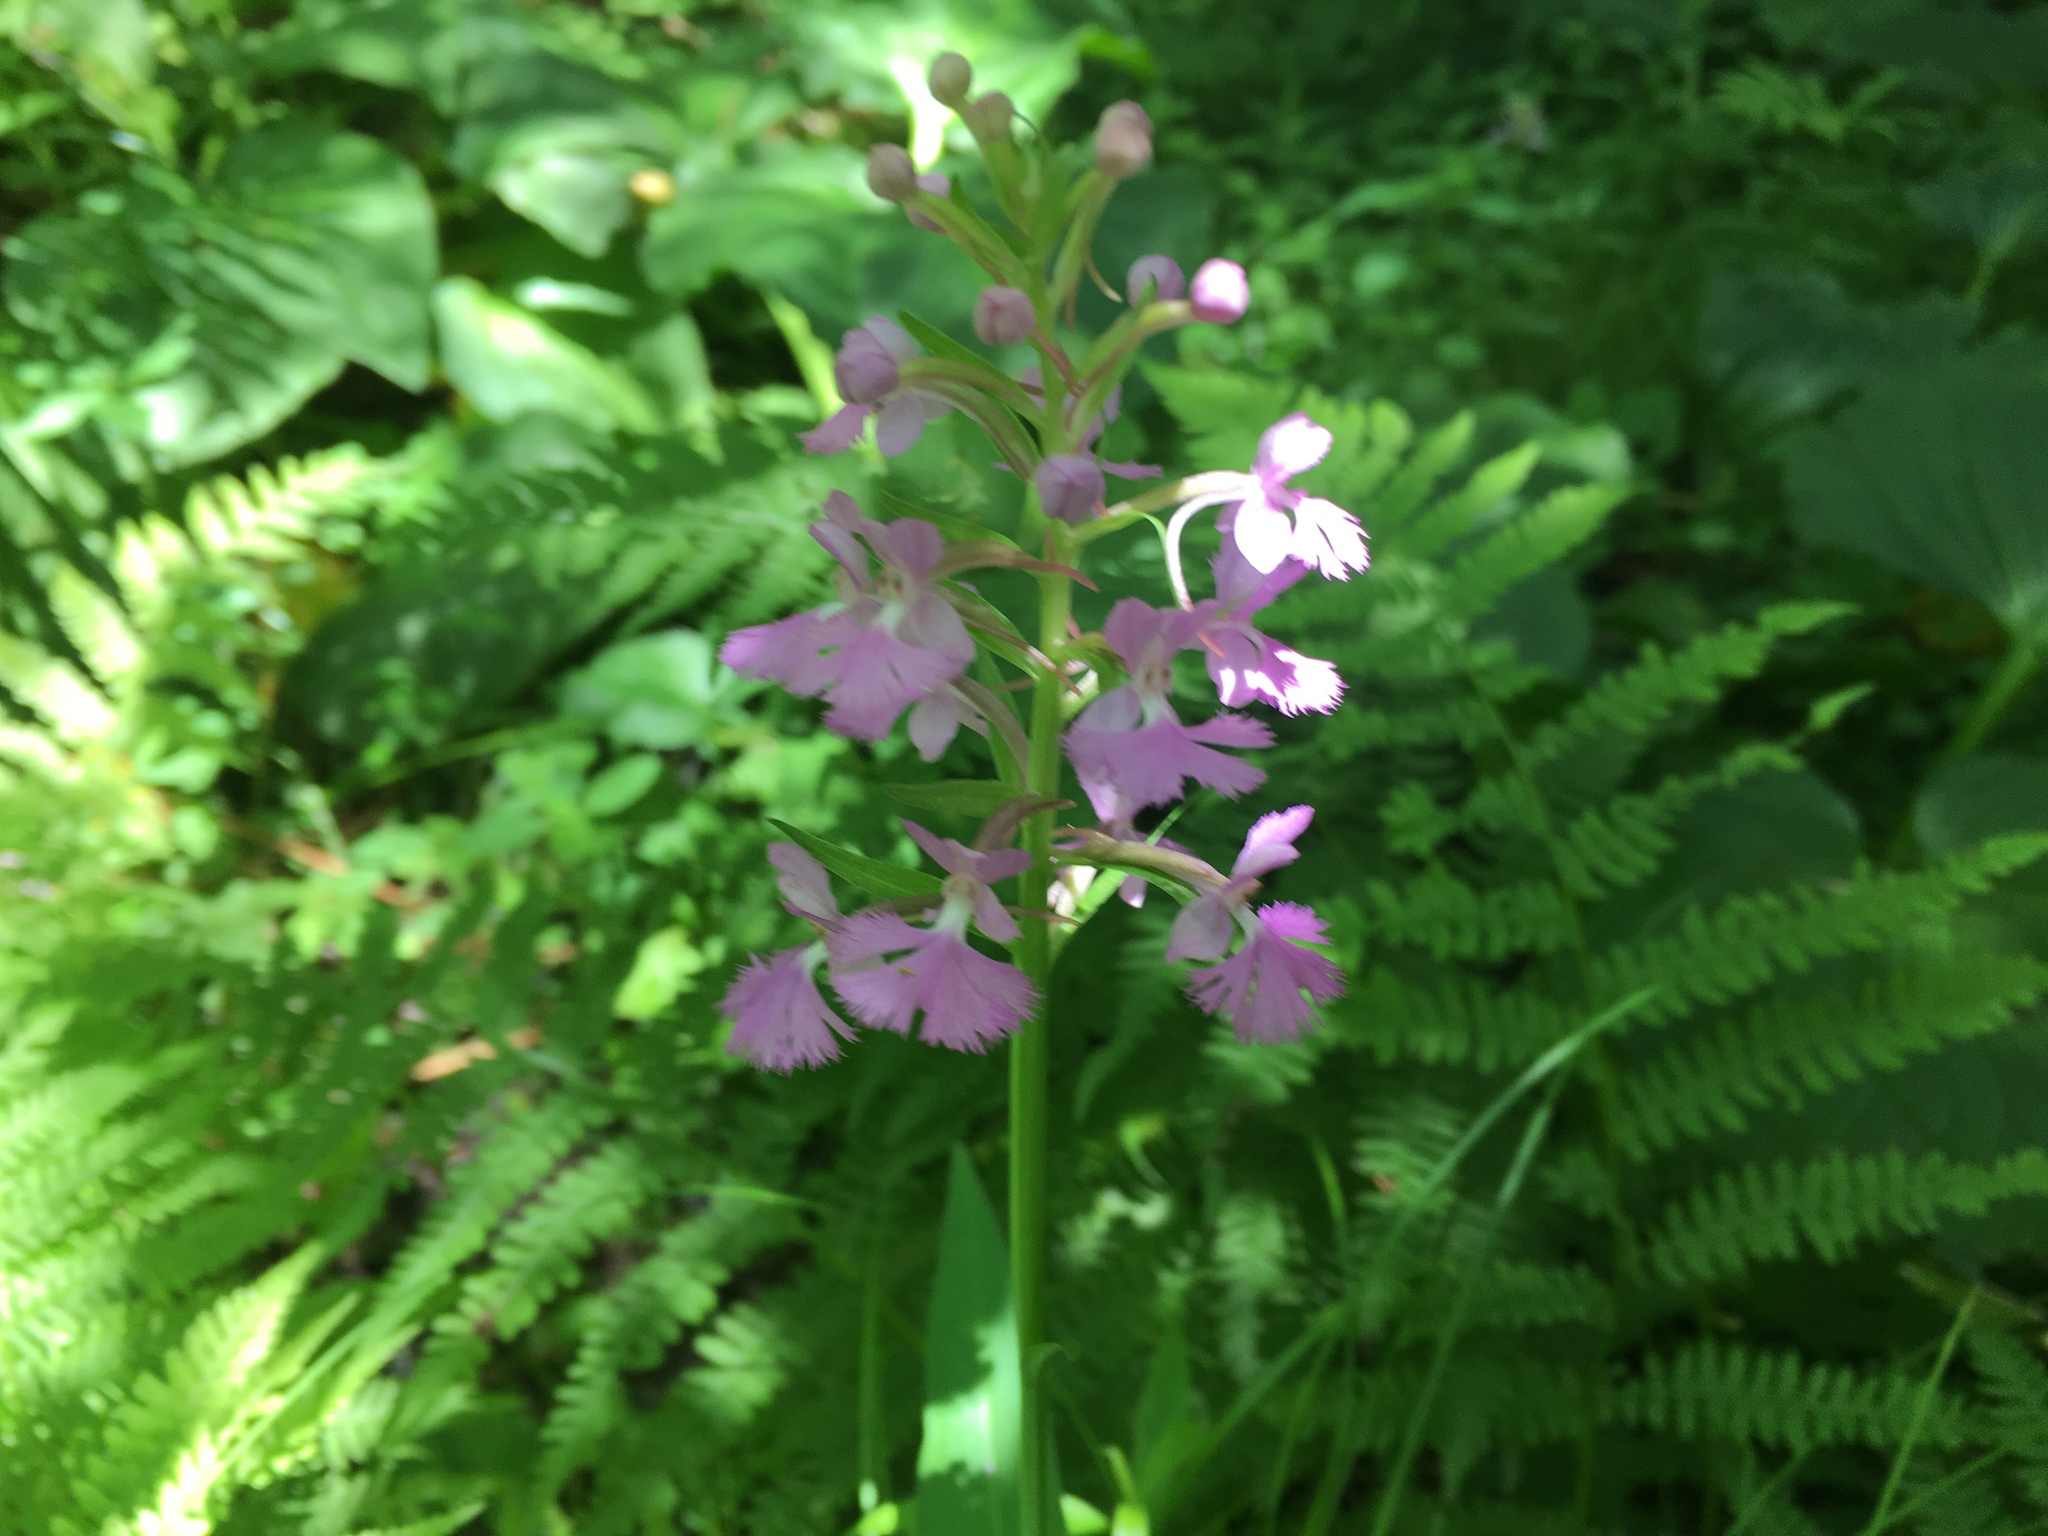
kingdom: Plantae
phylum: Tracheophyta
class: Liliopsida
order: Asparagales
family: Orchidaceae
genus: Platanthera
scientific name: Platanthera psycodes
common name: Lesser purple fringed orchid
